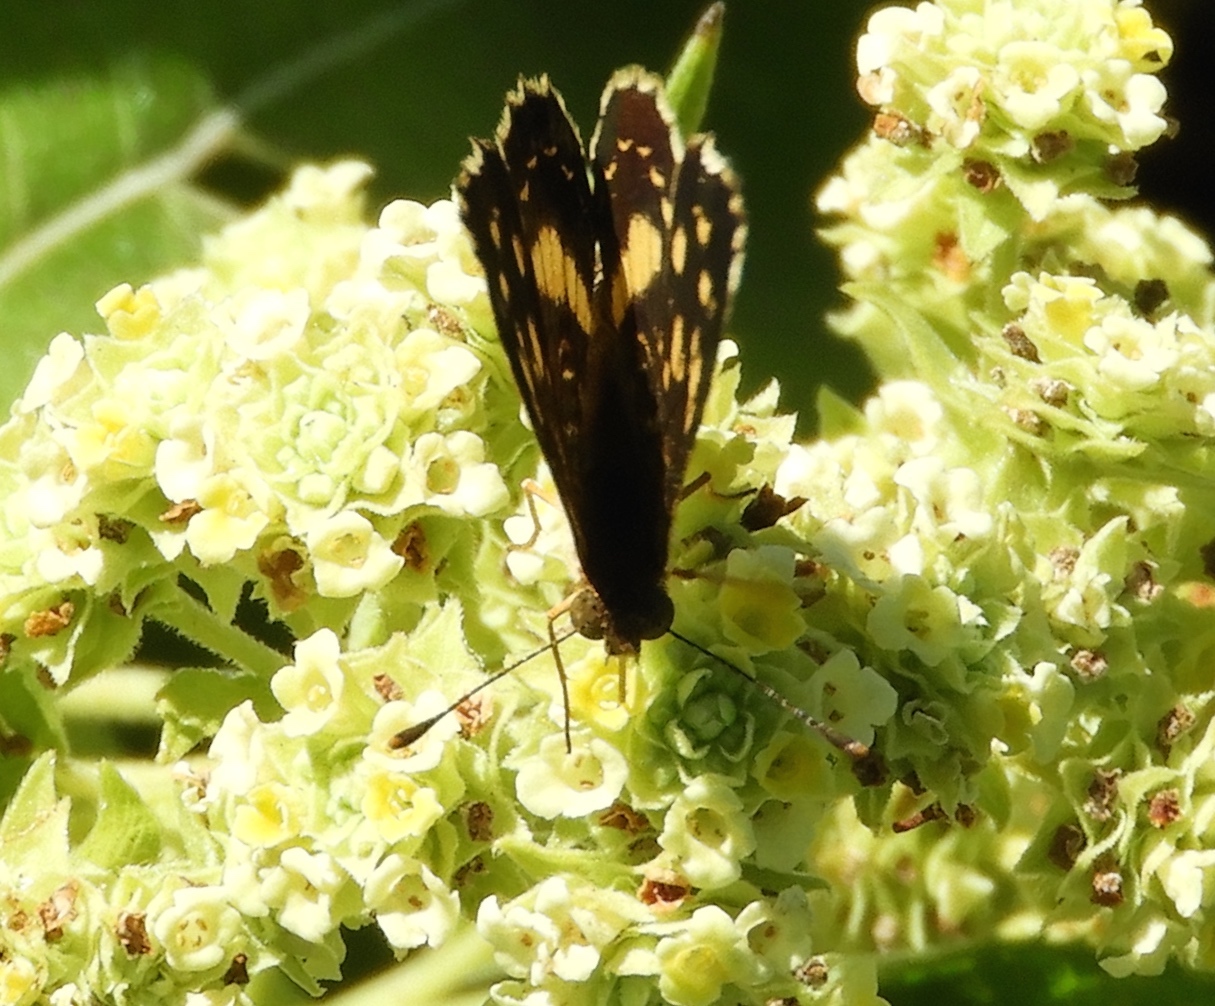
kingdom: Animalia
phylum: Arthropoda
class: Insecta
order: Lepidoptera
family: Nymphalidae
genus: Anthanassa
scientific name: Anthanassa tulcis
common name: Pale-banded crescent
